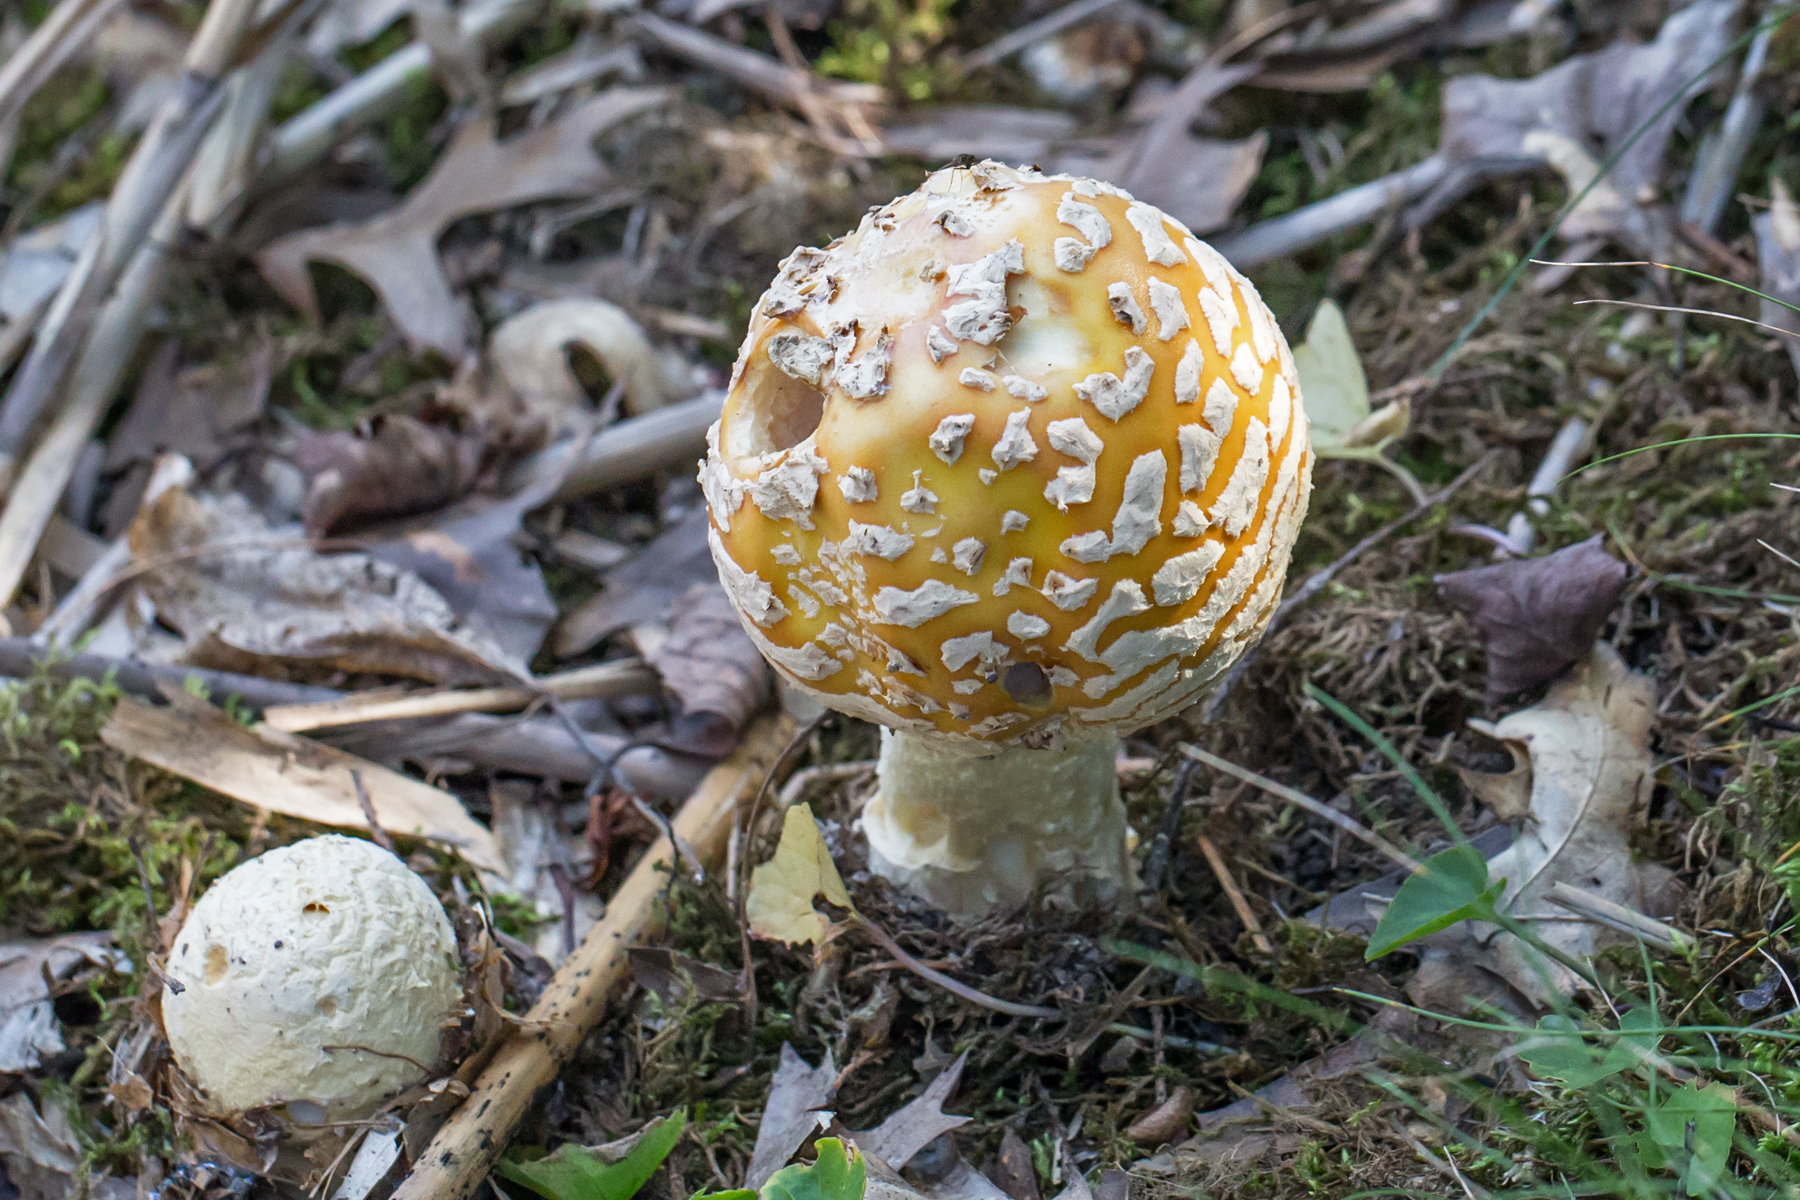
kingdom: Fungi
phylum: Basidiomycota
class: Agaricomycetes
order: Agaricales
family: Amanitaceae
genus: Amanita
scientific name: Amanita muscaria
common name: Fly agaric
